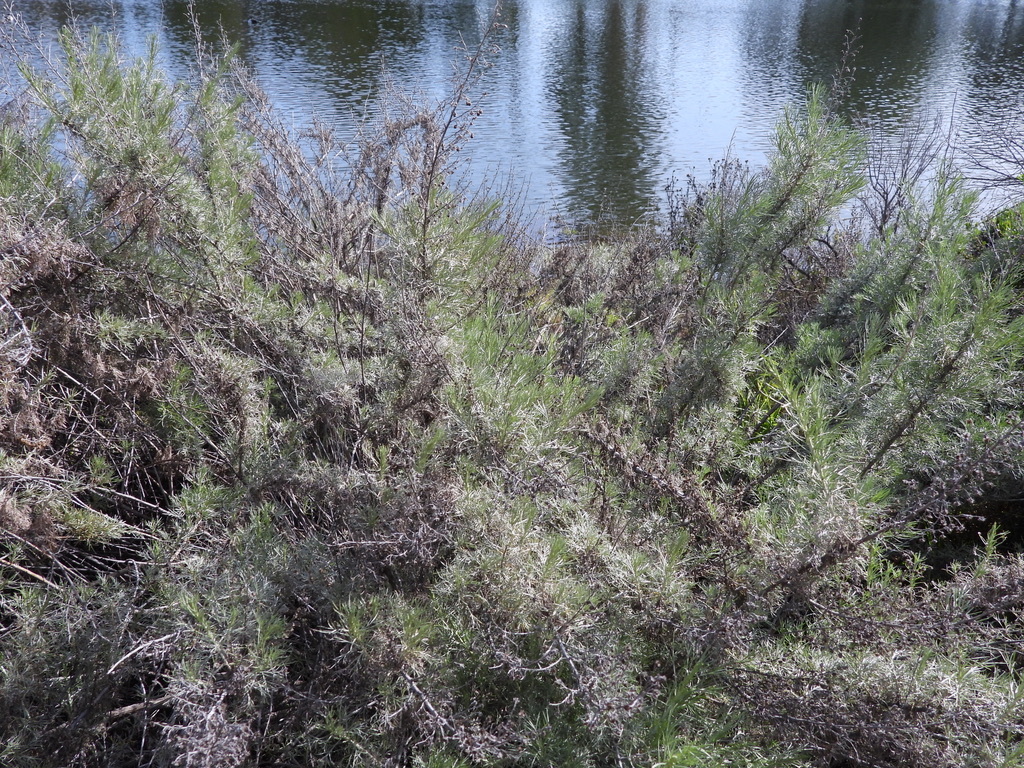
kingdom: Plantae
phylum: Tracheophyta
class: Magnoliopsida
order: Asterales
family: Asteraceae
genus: Artemisia
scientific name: Artemisia californica
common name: California sagebrush
